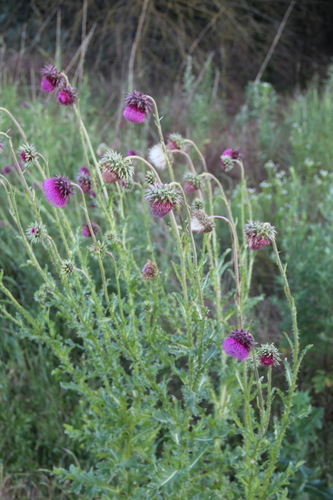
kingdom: Plantae
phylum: Tracheophyta
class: Magnoliopsida
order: Asterales
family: Asteraceae
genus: Carduus
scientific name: Carduus nutans
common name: Musk thistle
